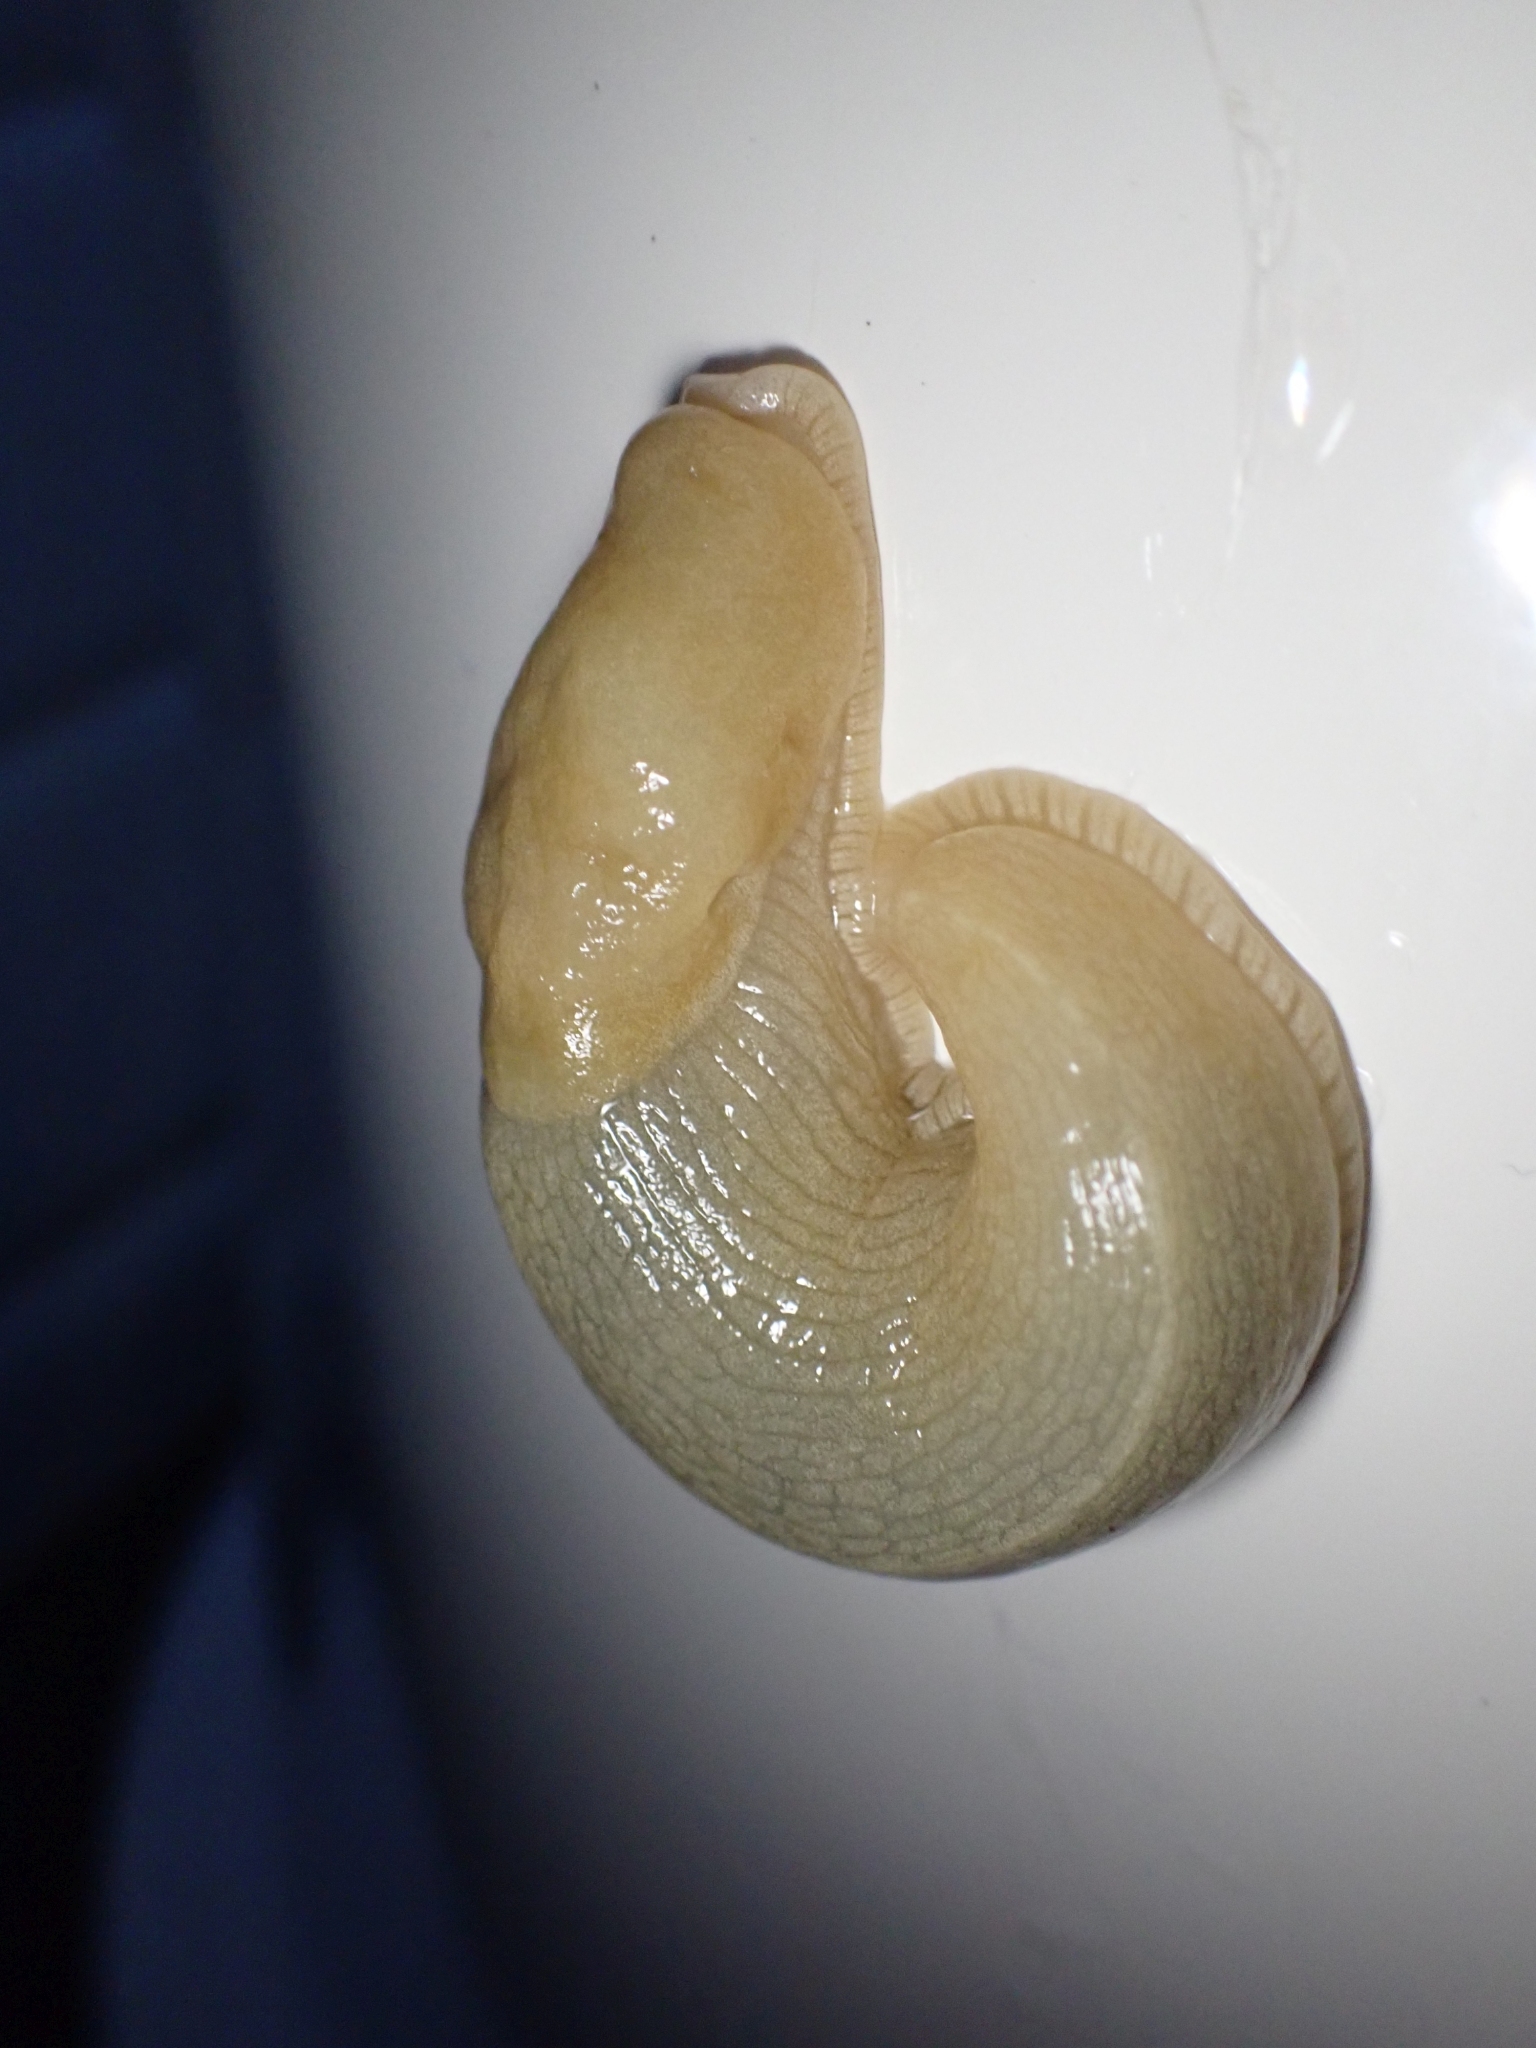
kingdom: Animalia
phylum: Mollusca
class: Gastropoda
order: Stylommatophora
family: Ariolimacidae
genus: Ariolimax
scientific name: Ariolimax columbianus
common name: Pacific banana slug
